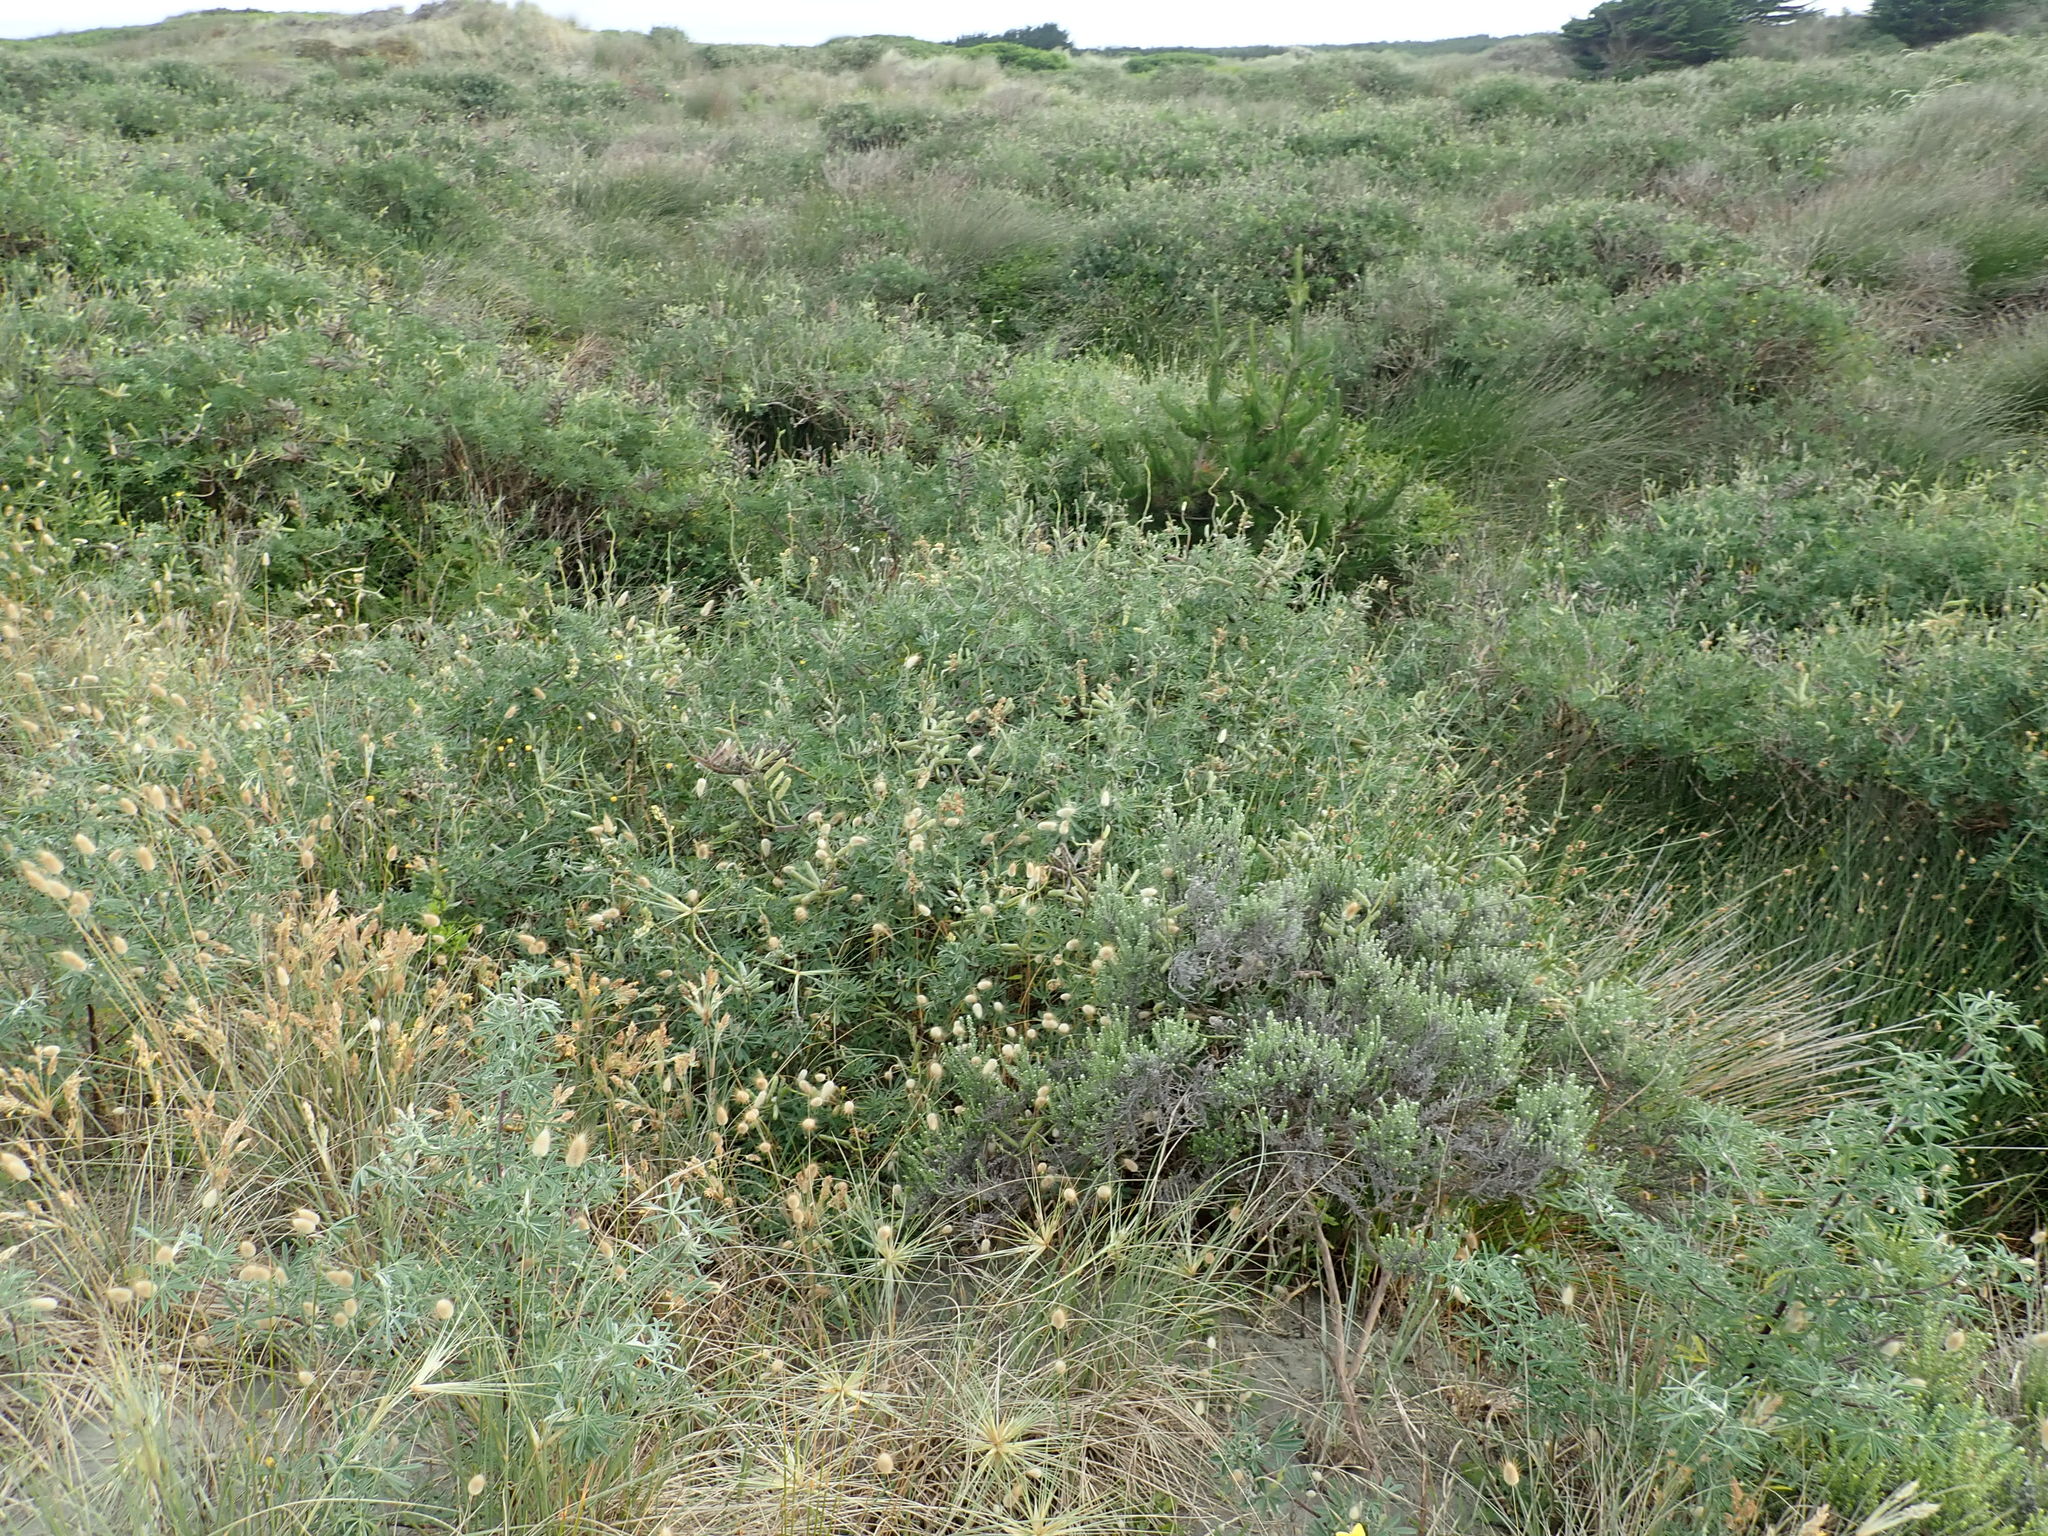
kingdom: Plantae
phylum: Tracheophyta
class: Pinopsida
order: Pinales
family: Pinaceae
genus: Pinus
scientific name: Pinus radiata
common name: Monterey pine
